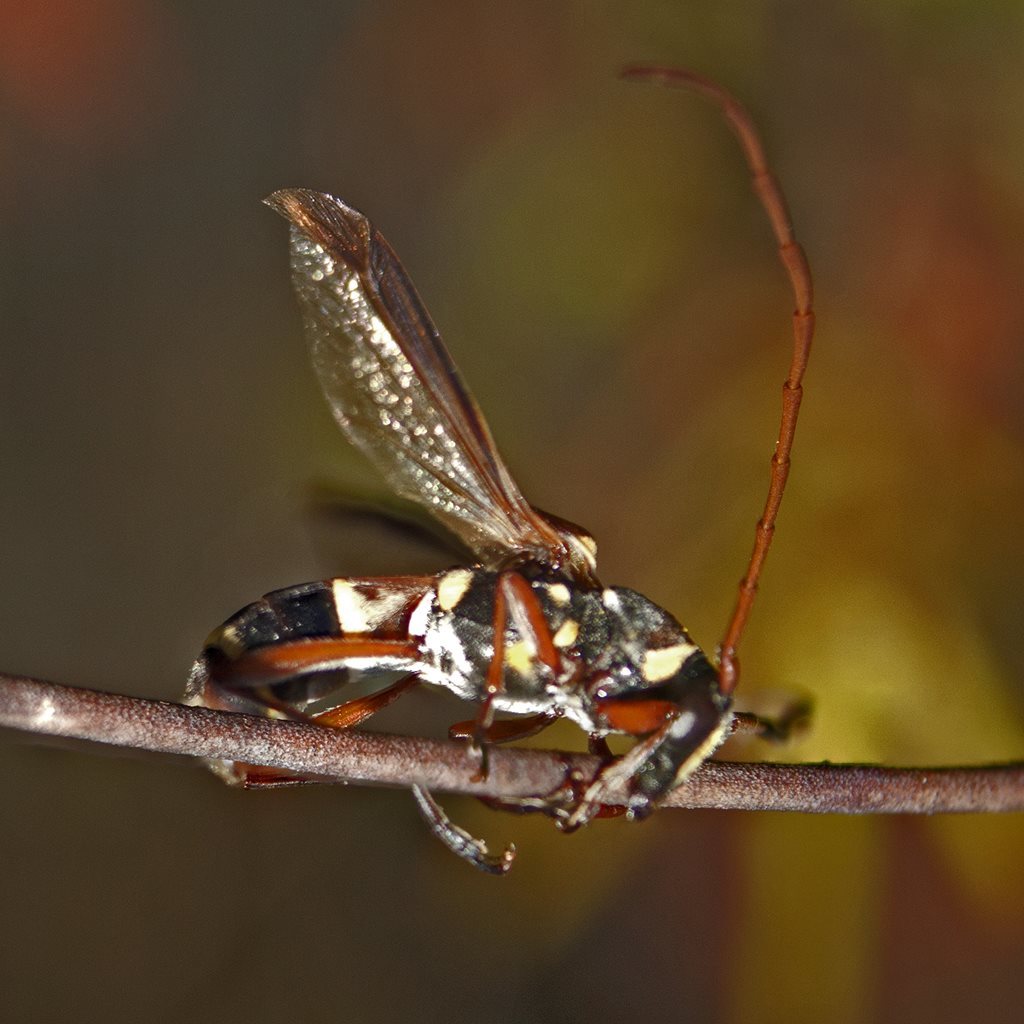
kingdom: Animalia
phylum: Arthropoda
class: Insecta
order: Coleoptera
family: Cerambycidae
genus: Hesthesis
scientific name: Hesthesis bizonatus
